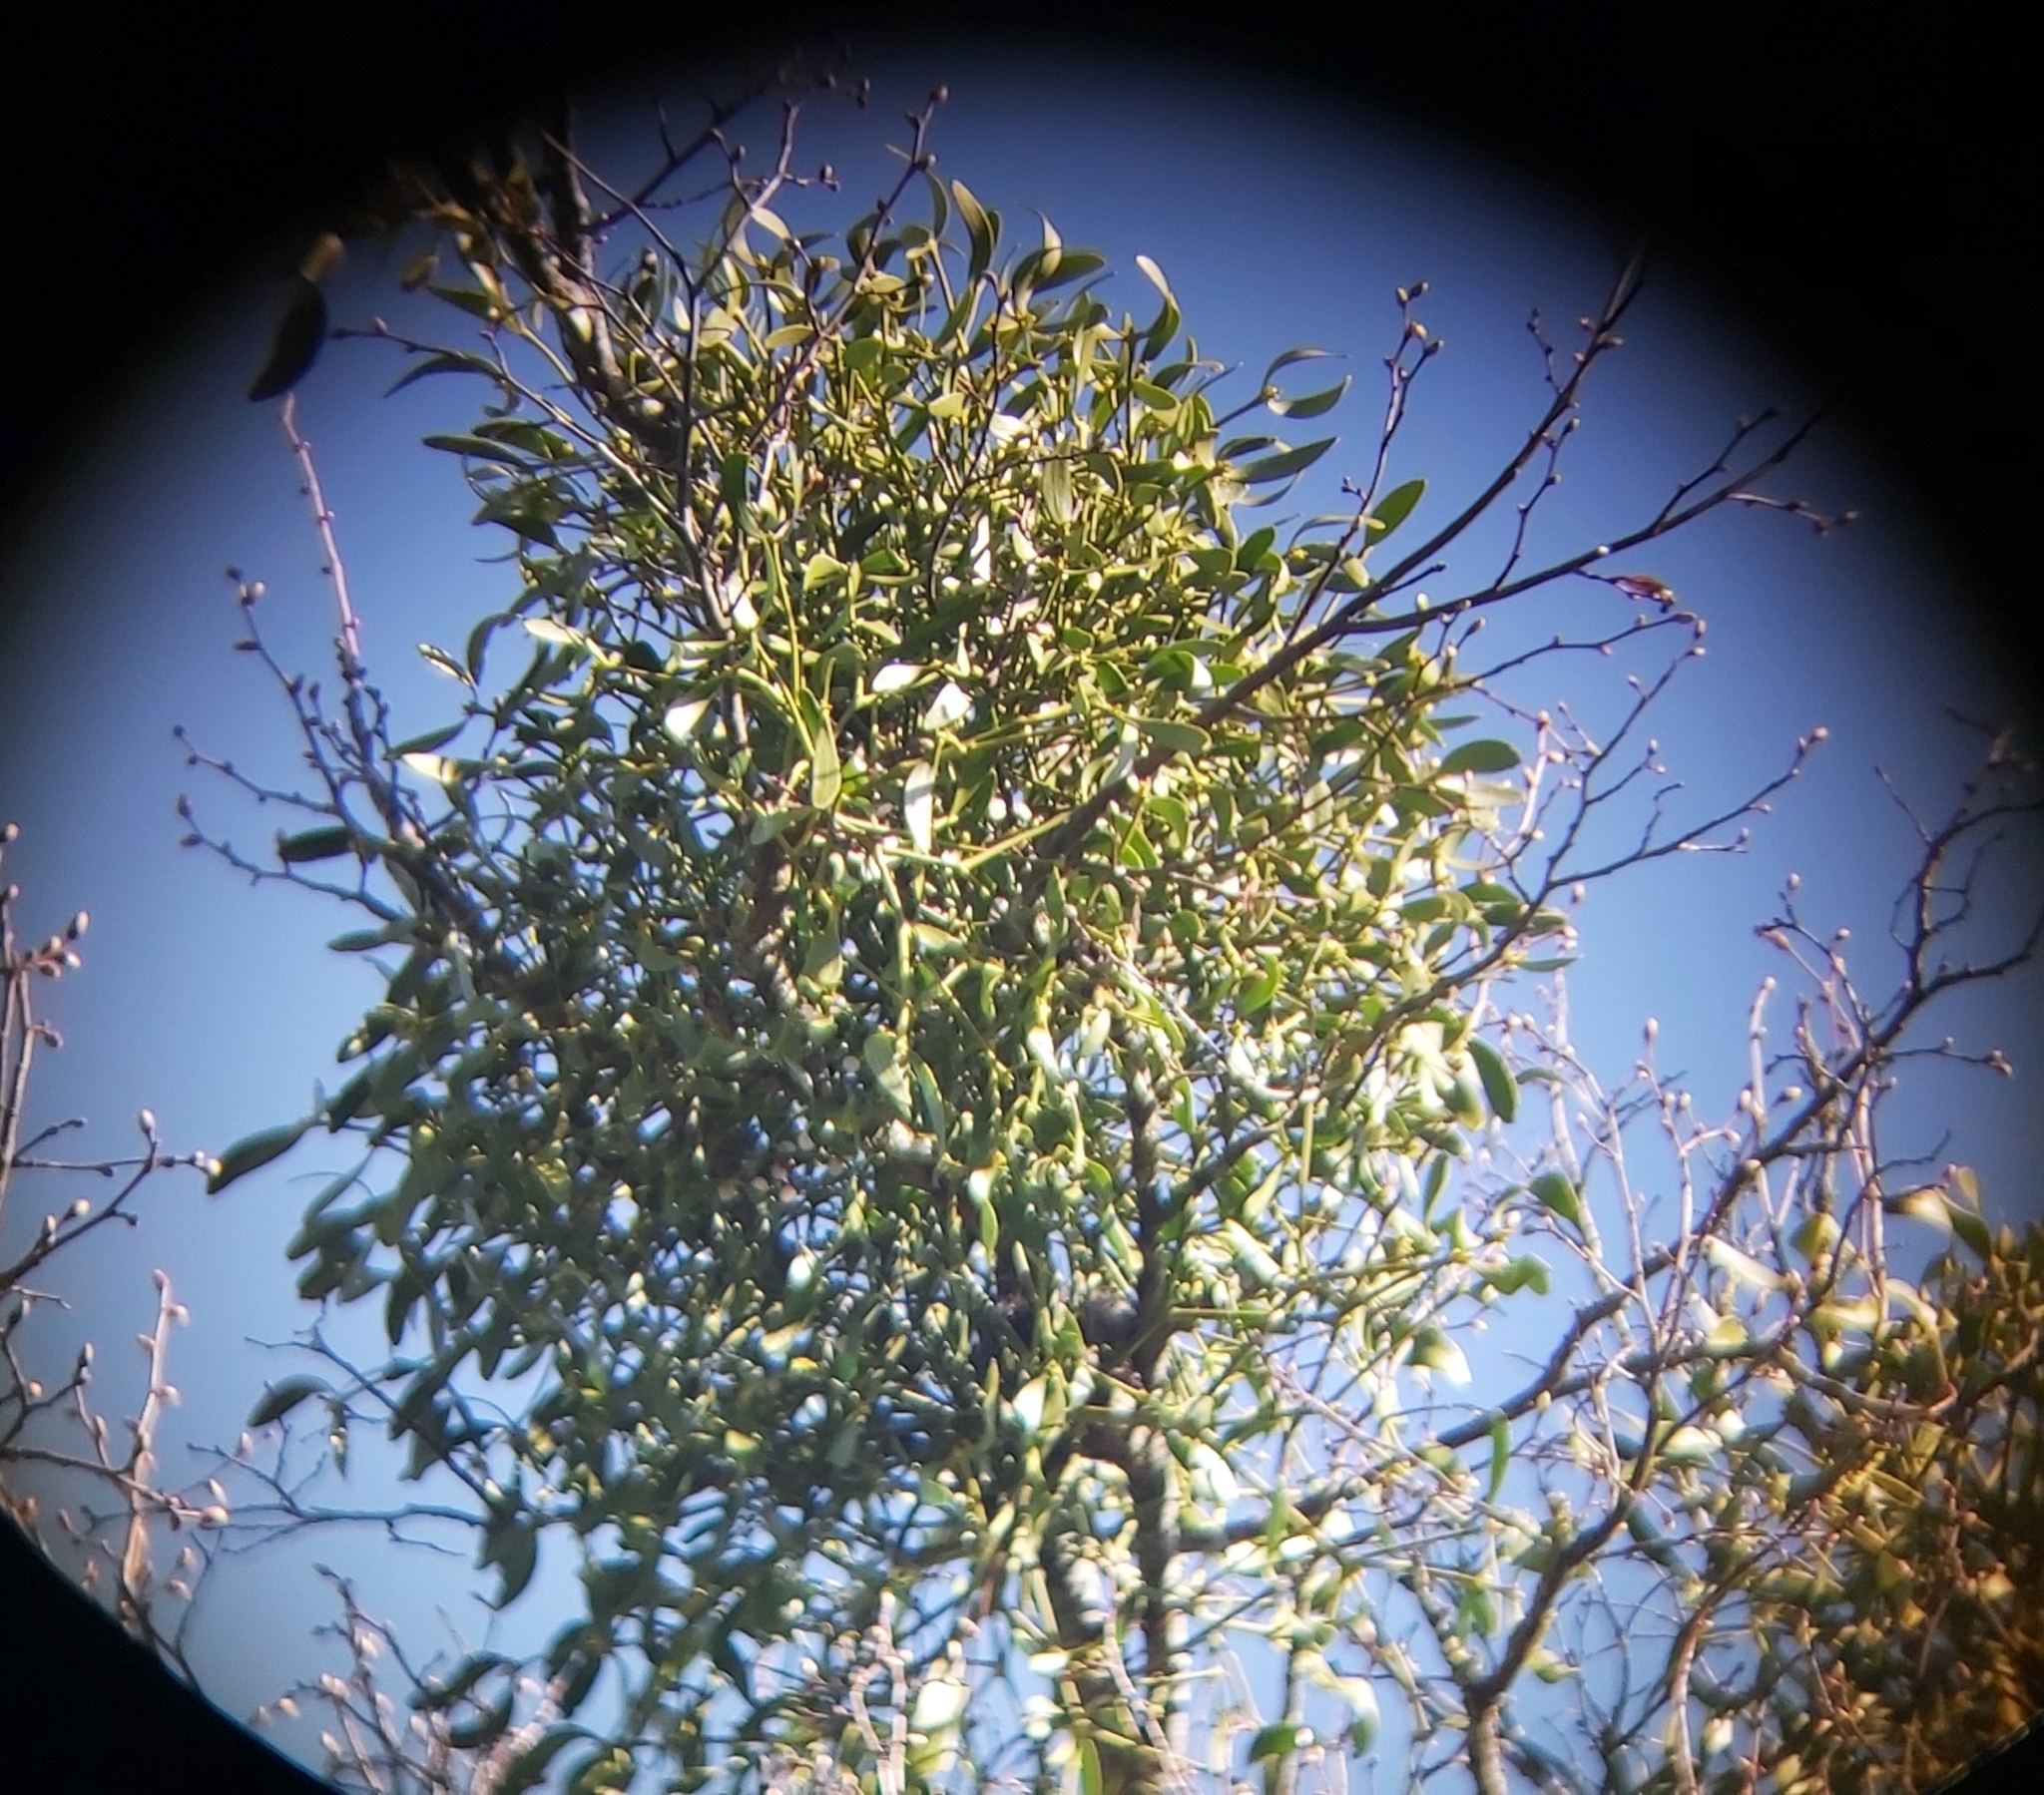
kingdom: Plantae
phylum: Tracheophyta
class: Magnoliopsida
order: Santalales
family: Viscaceae
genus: Viscum
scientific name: Viscum album
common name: Mistletoe
